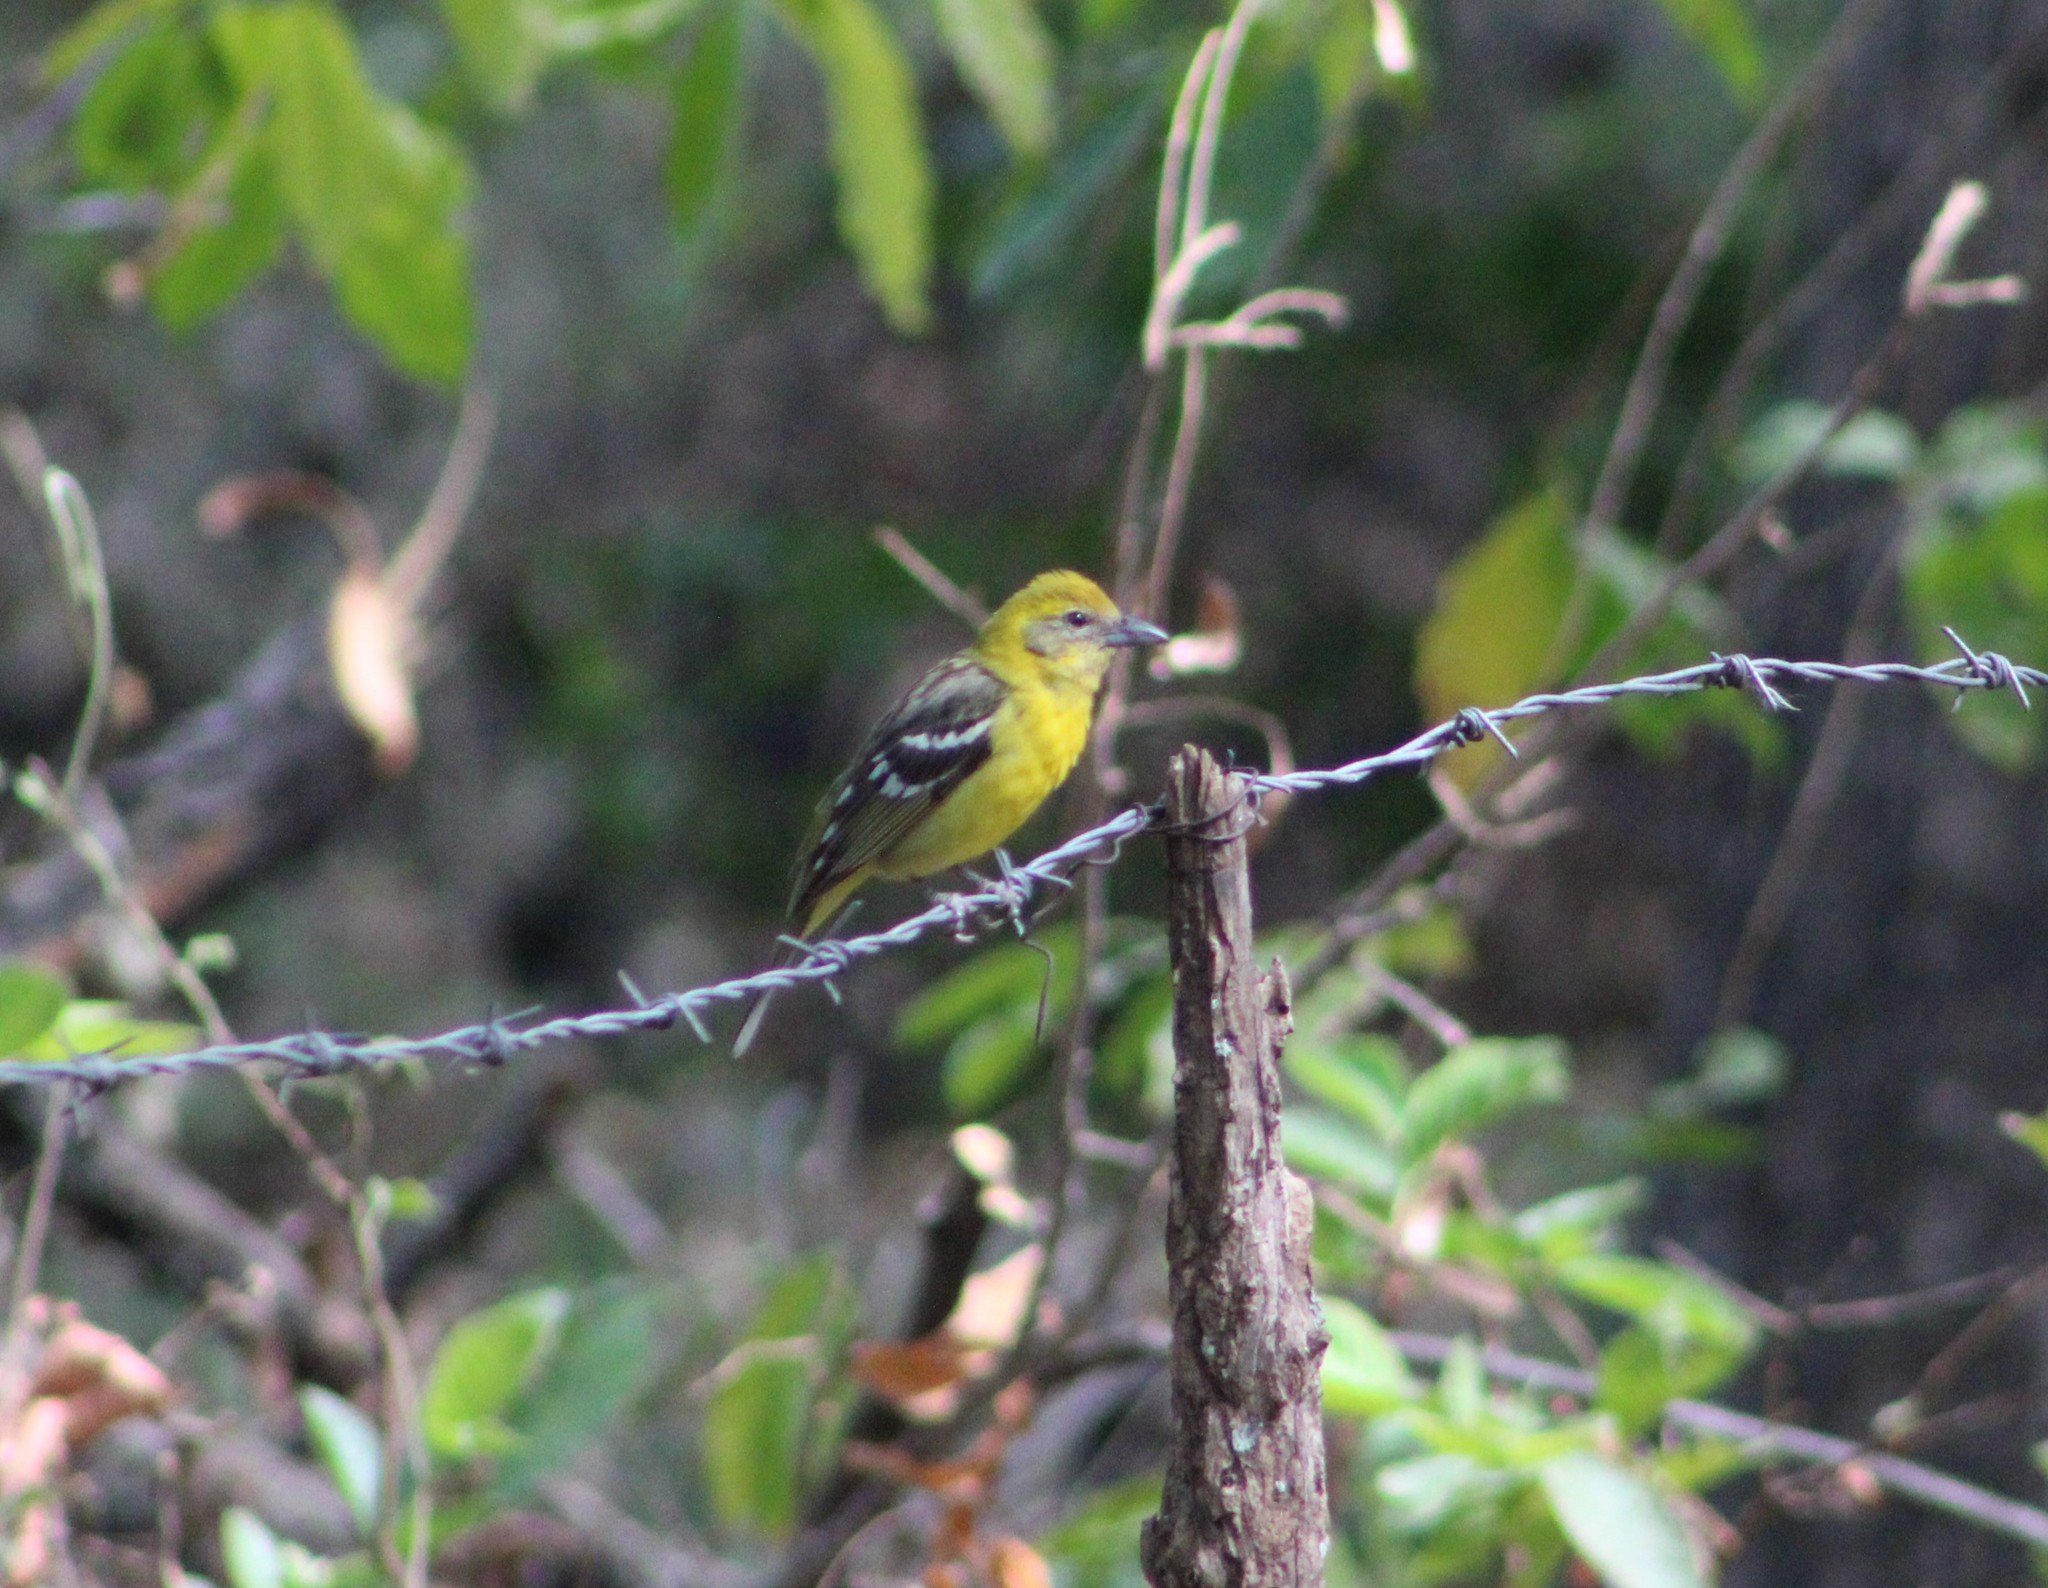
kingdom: Animalia
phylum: Chordata
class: Aves
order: Passeriformes
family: Cardinalidae
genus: Piranga
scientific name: Piranga bidentata
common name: Flame-colored tanager
